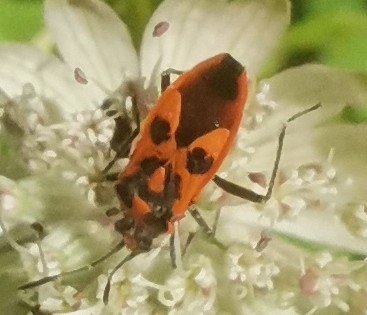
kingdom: Animalia
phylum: Arthropoda
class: Insecta
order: Hemiptera
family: Rhopalidae
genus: Corizus
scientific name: Corizus hyoscyami
